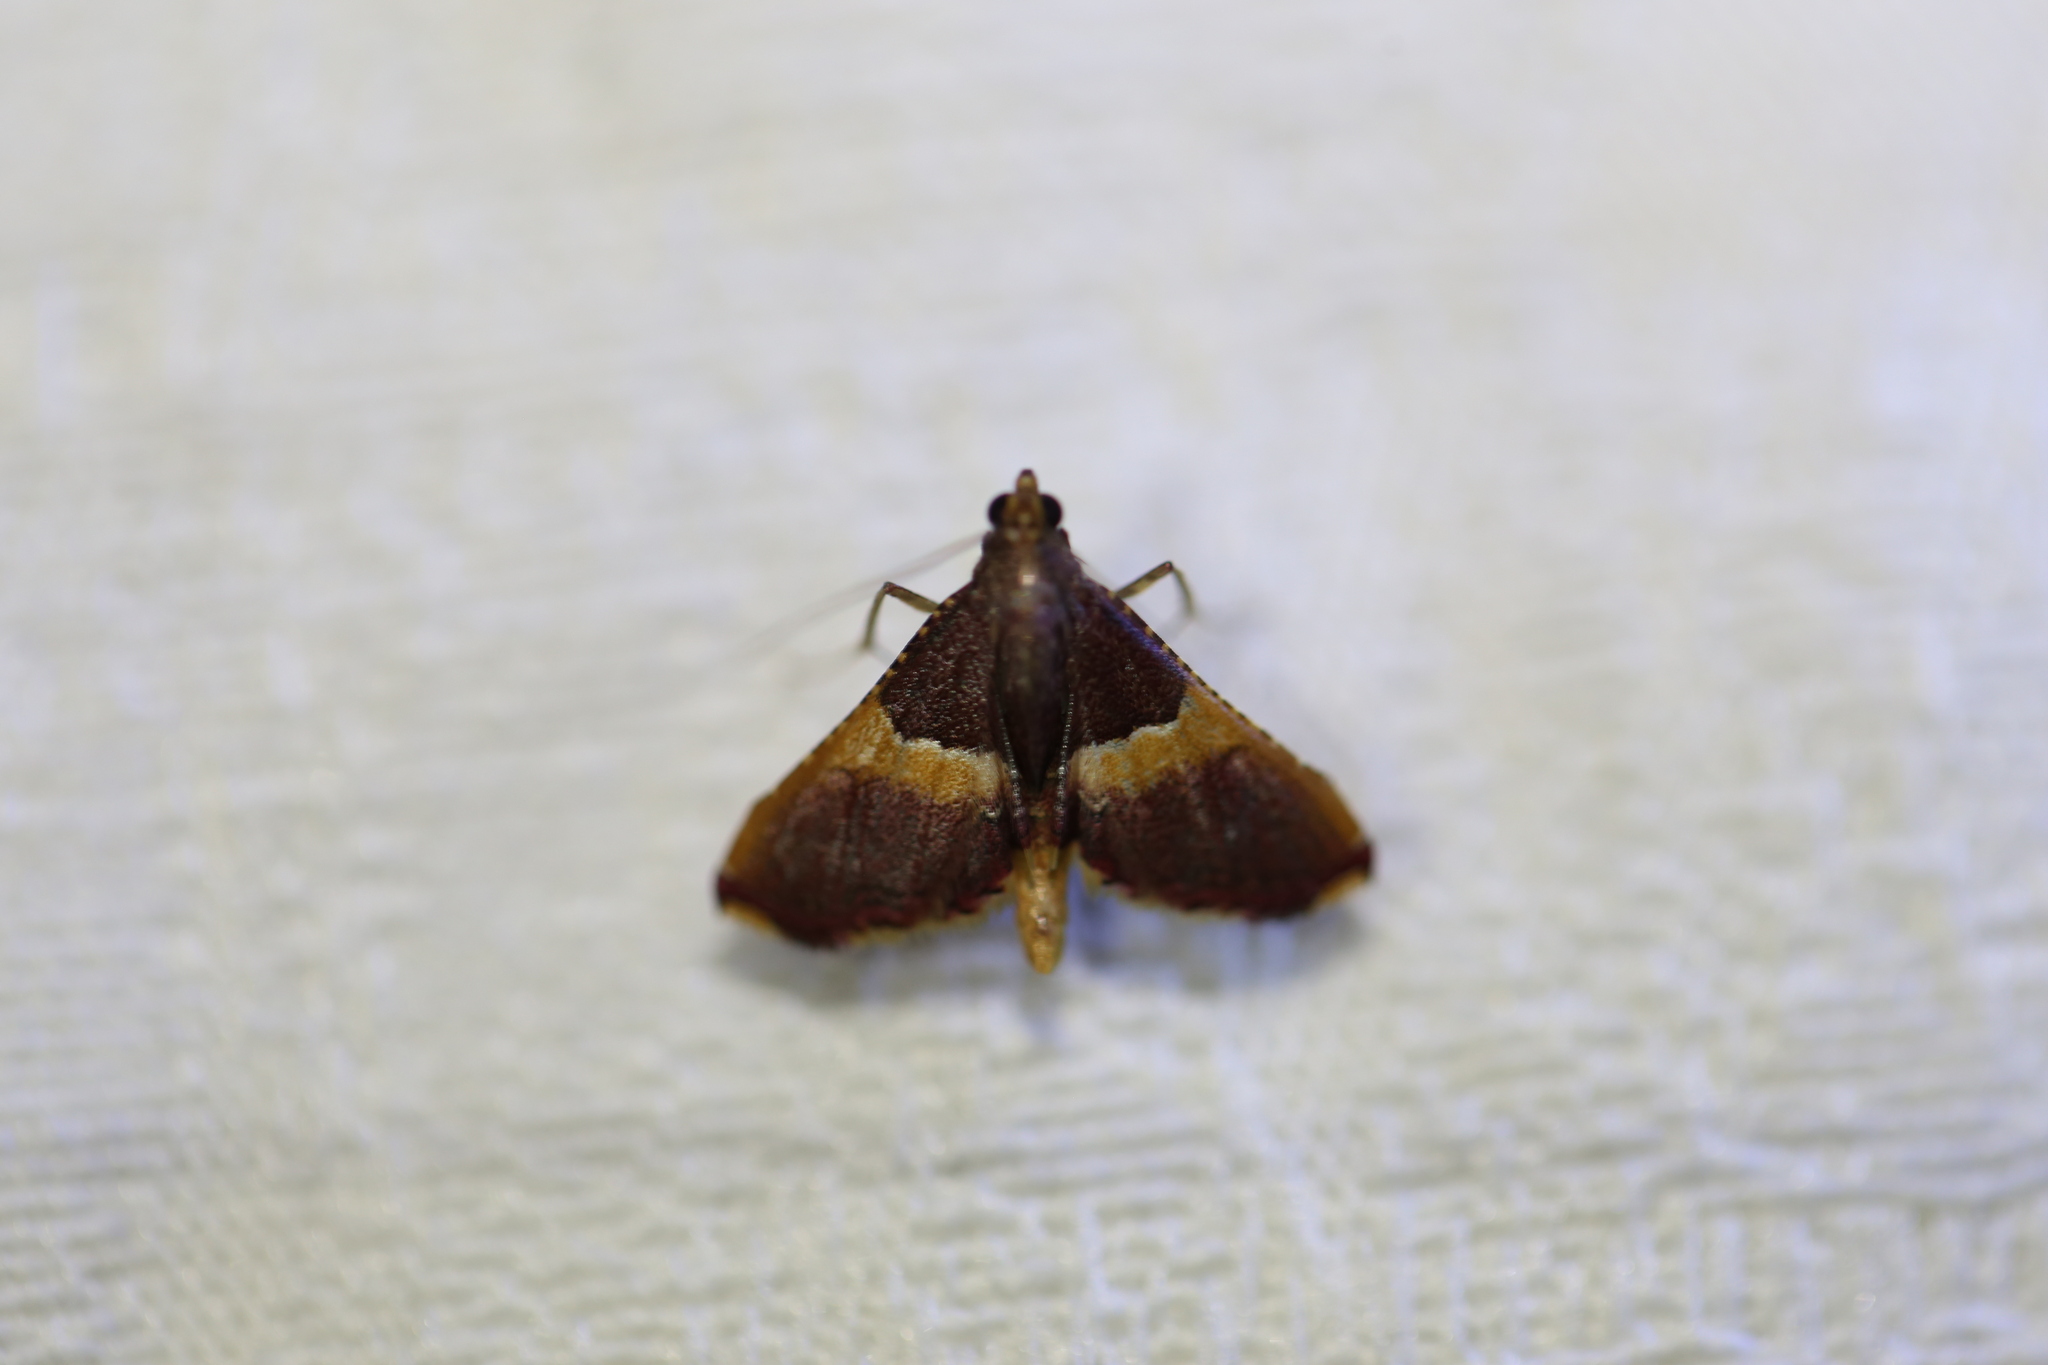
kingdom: Animalia
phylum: Arthropoda
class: Insecta
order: Lepidoptera
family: Pyralidae
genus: Endotricha
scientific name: Endotricha mesenterialis
